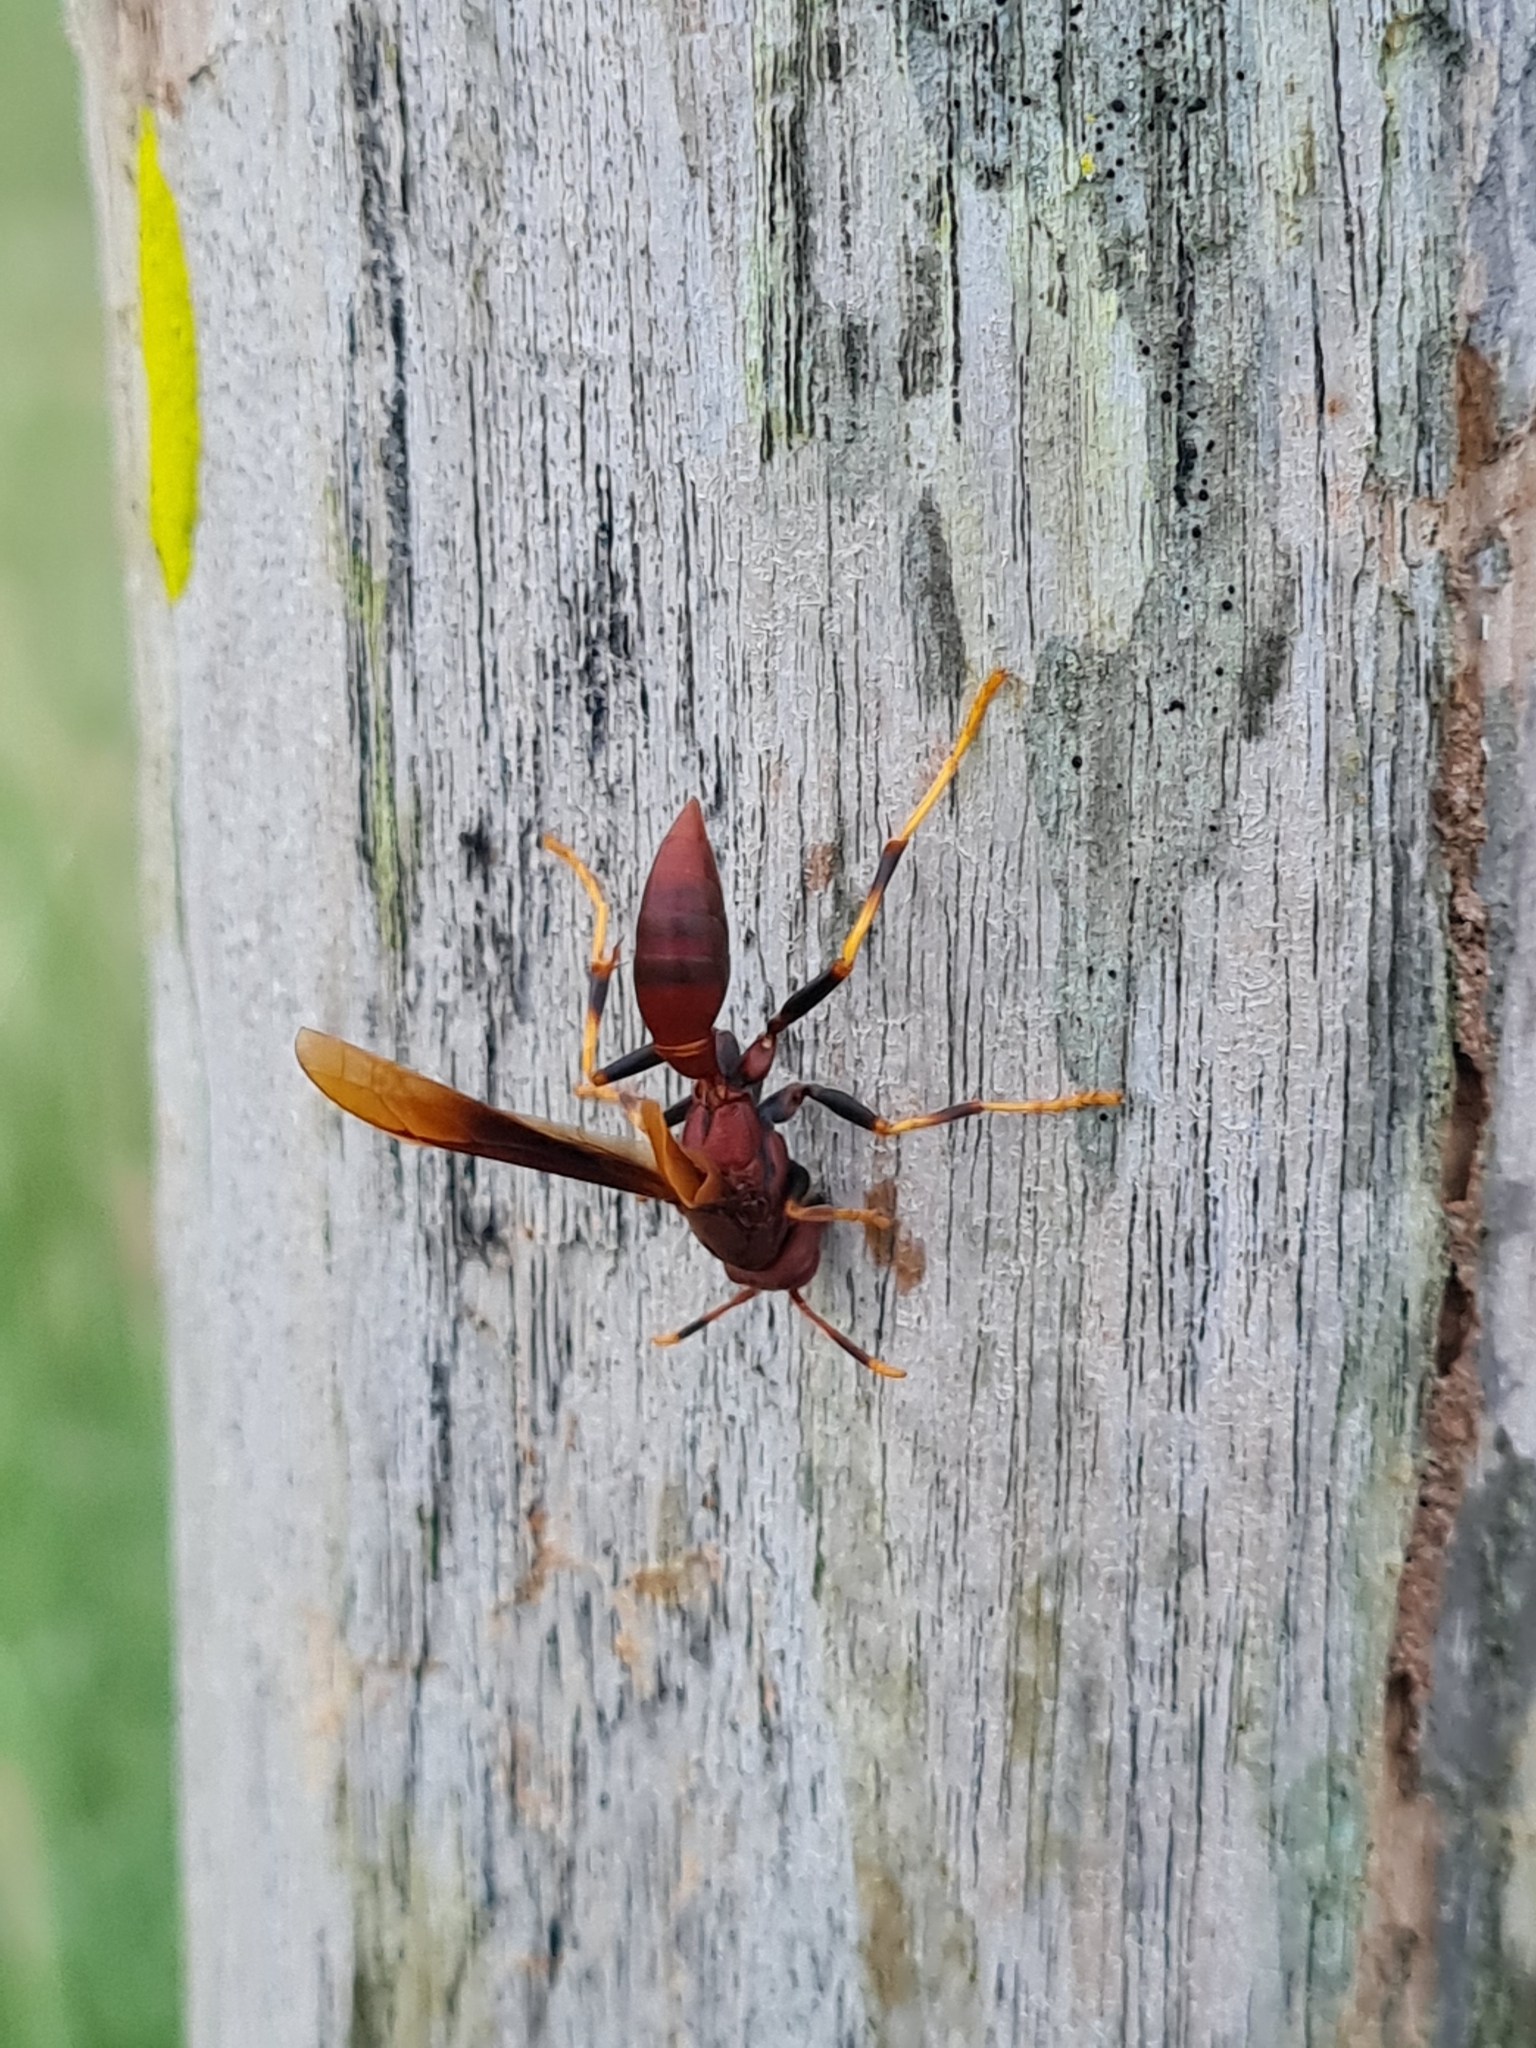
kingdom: Animalia
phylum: Arthropoda
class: Insecta
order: Hymenoptera
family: Eumenidae
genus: Polistes
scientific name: Polistes lanio
